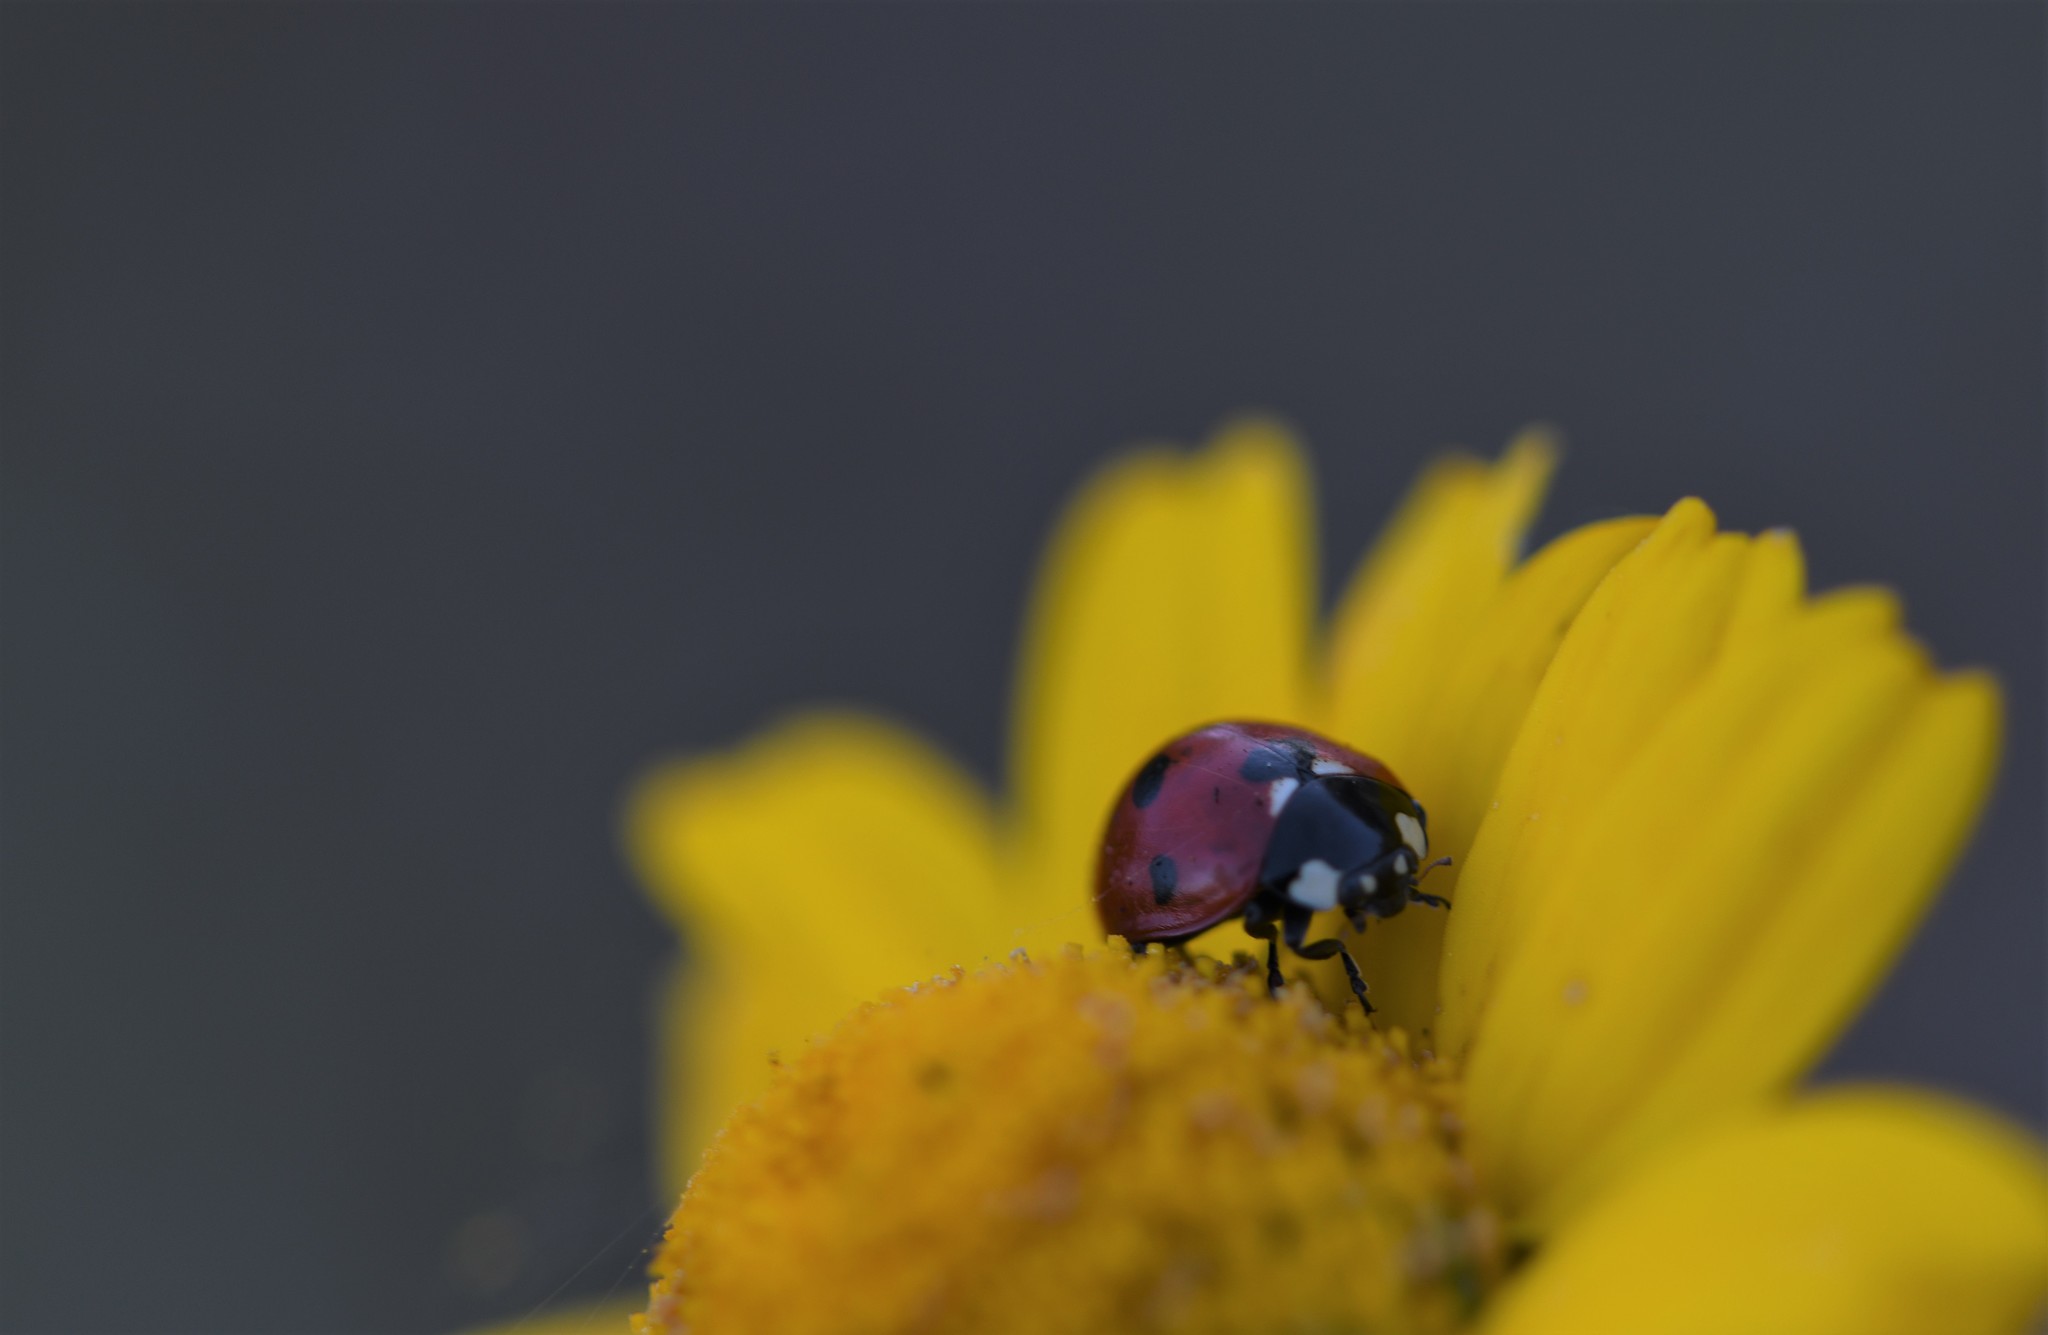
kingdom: Animalia
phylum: Arthropoda
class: Insecta
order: Coleoptera
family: Coccinellidae
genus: Coccinella
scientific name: Coccinella septempunctata
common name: Sevenspotted lady beetle
